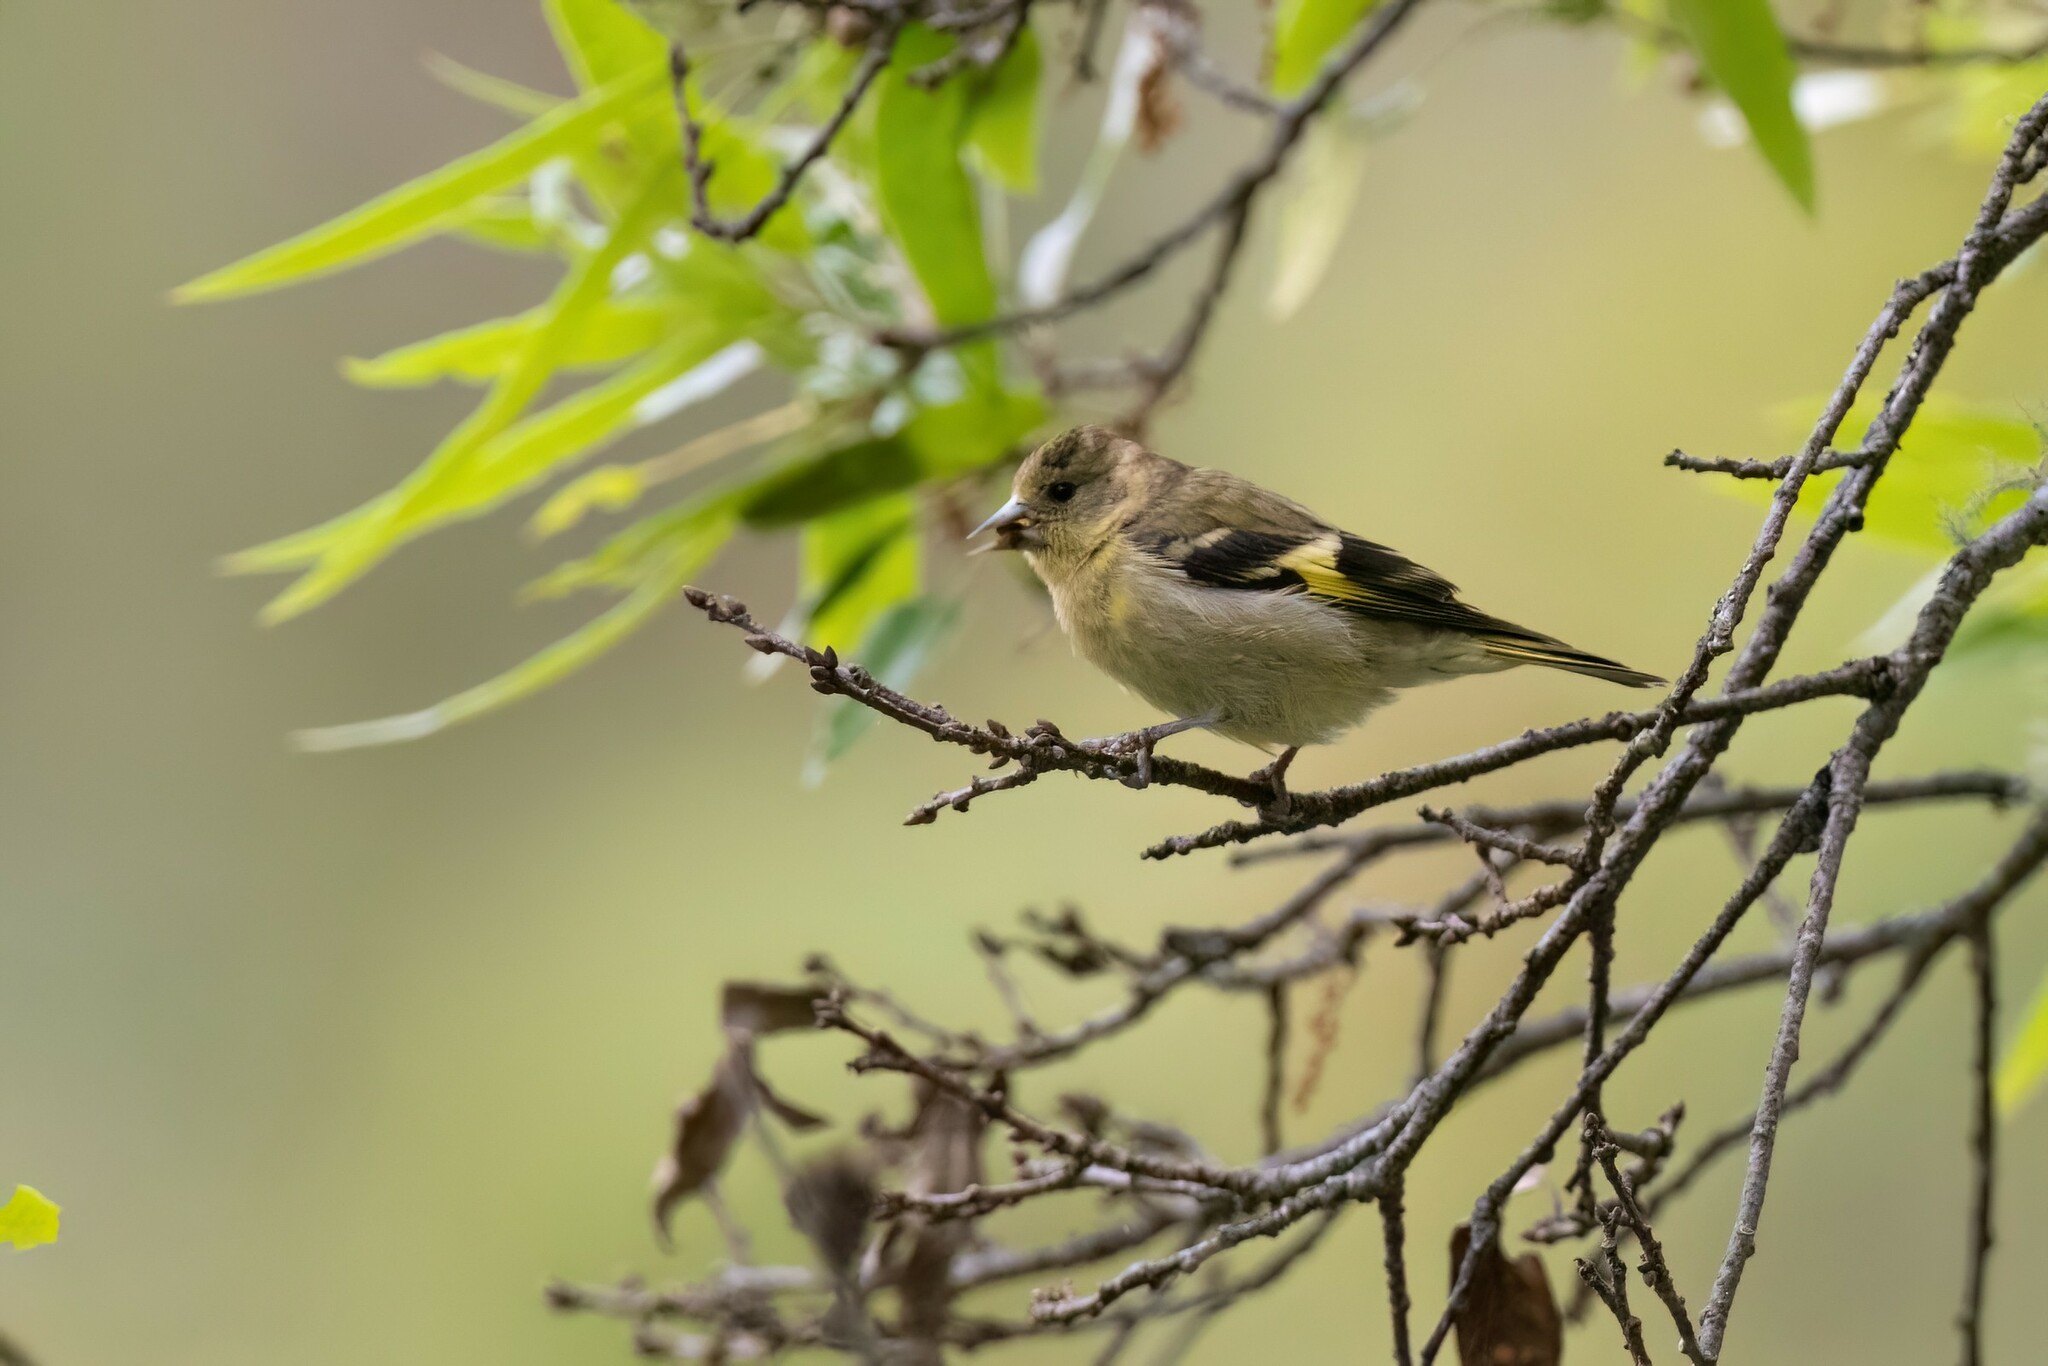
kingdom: Animalia
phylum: Chordata
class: Aves
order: Passeriformes
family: Fringillidae
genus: Spinus
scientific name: Spinus notatus
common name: Black-headed siskin
